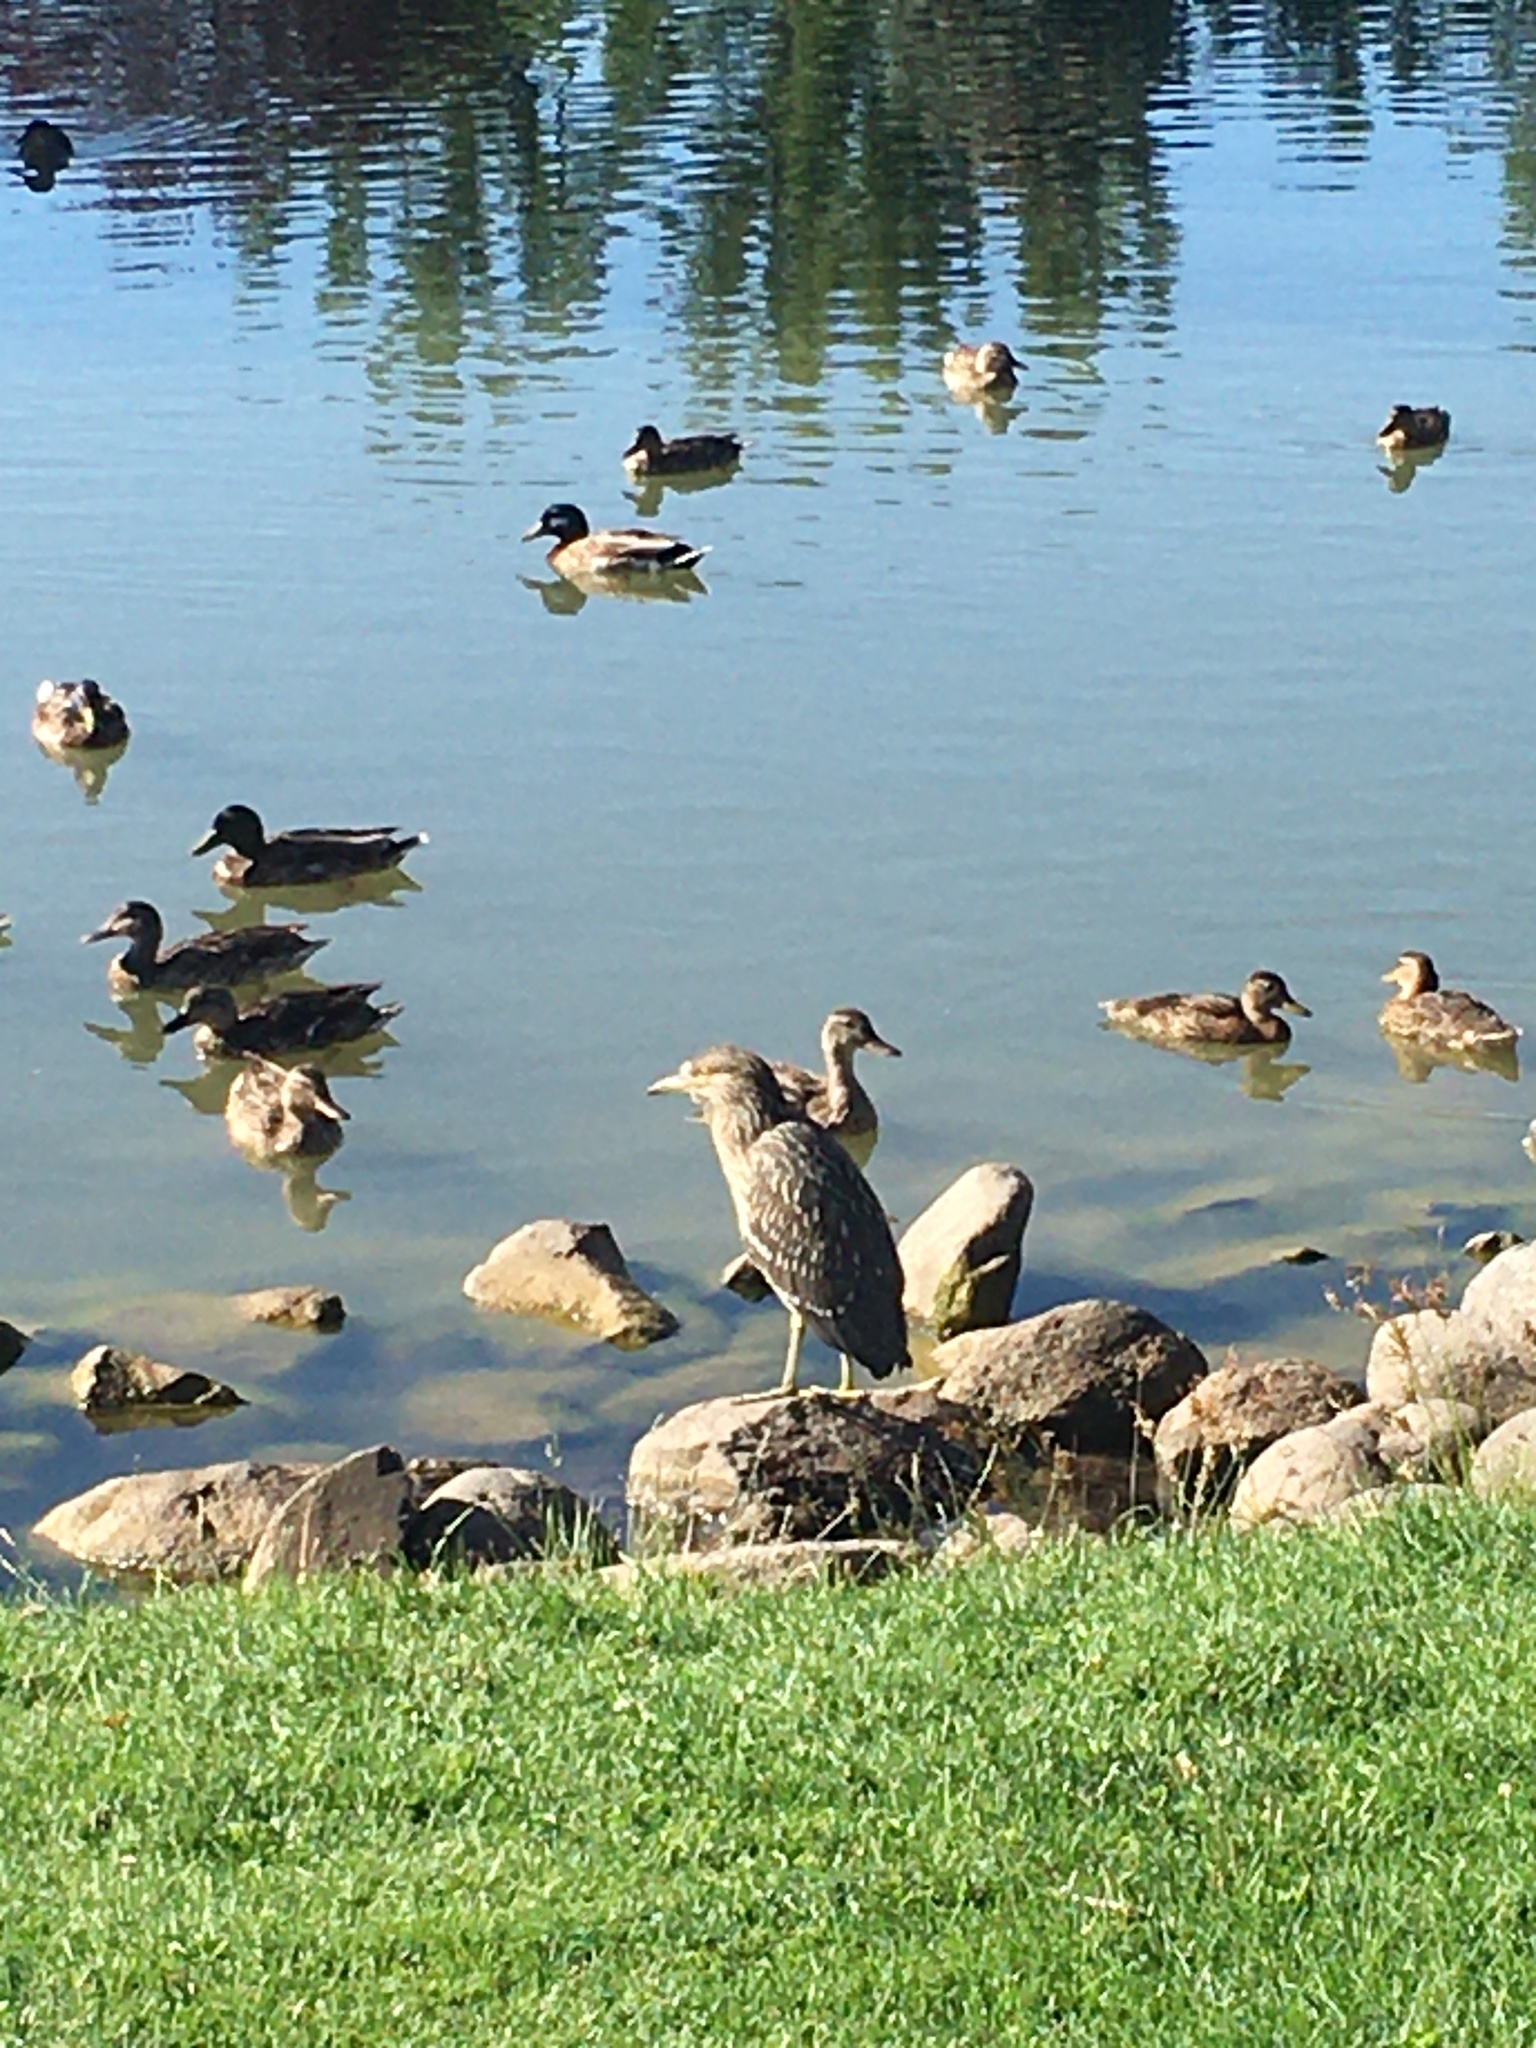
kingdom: Animalia
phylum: Chordata
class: Aves
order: Pelecaniformes
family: Ardeidae
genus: Nycticorax
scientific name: Nycticorax nycticorax
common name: Black-crowned night heron
